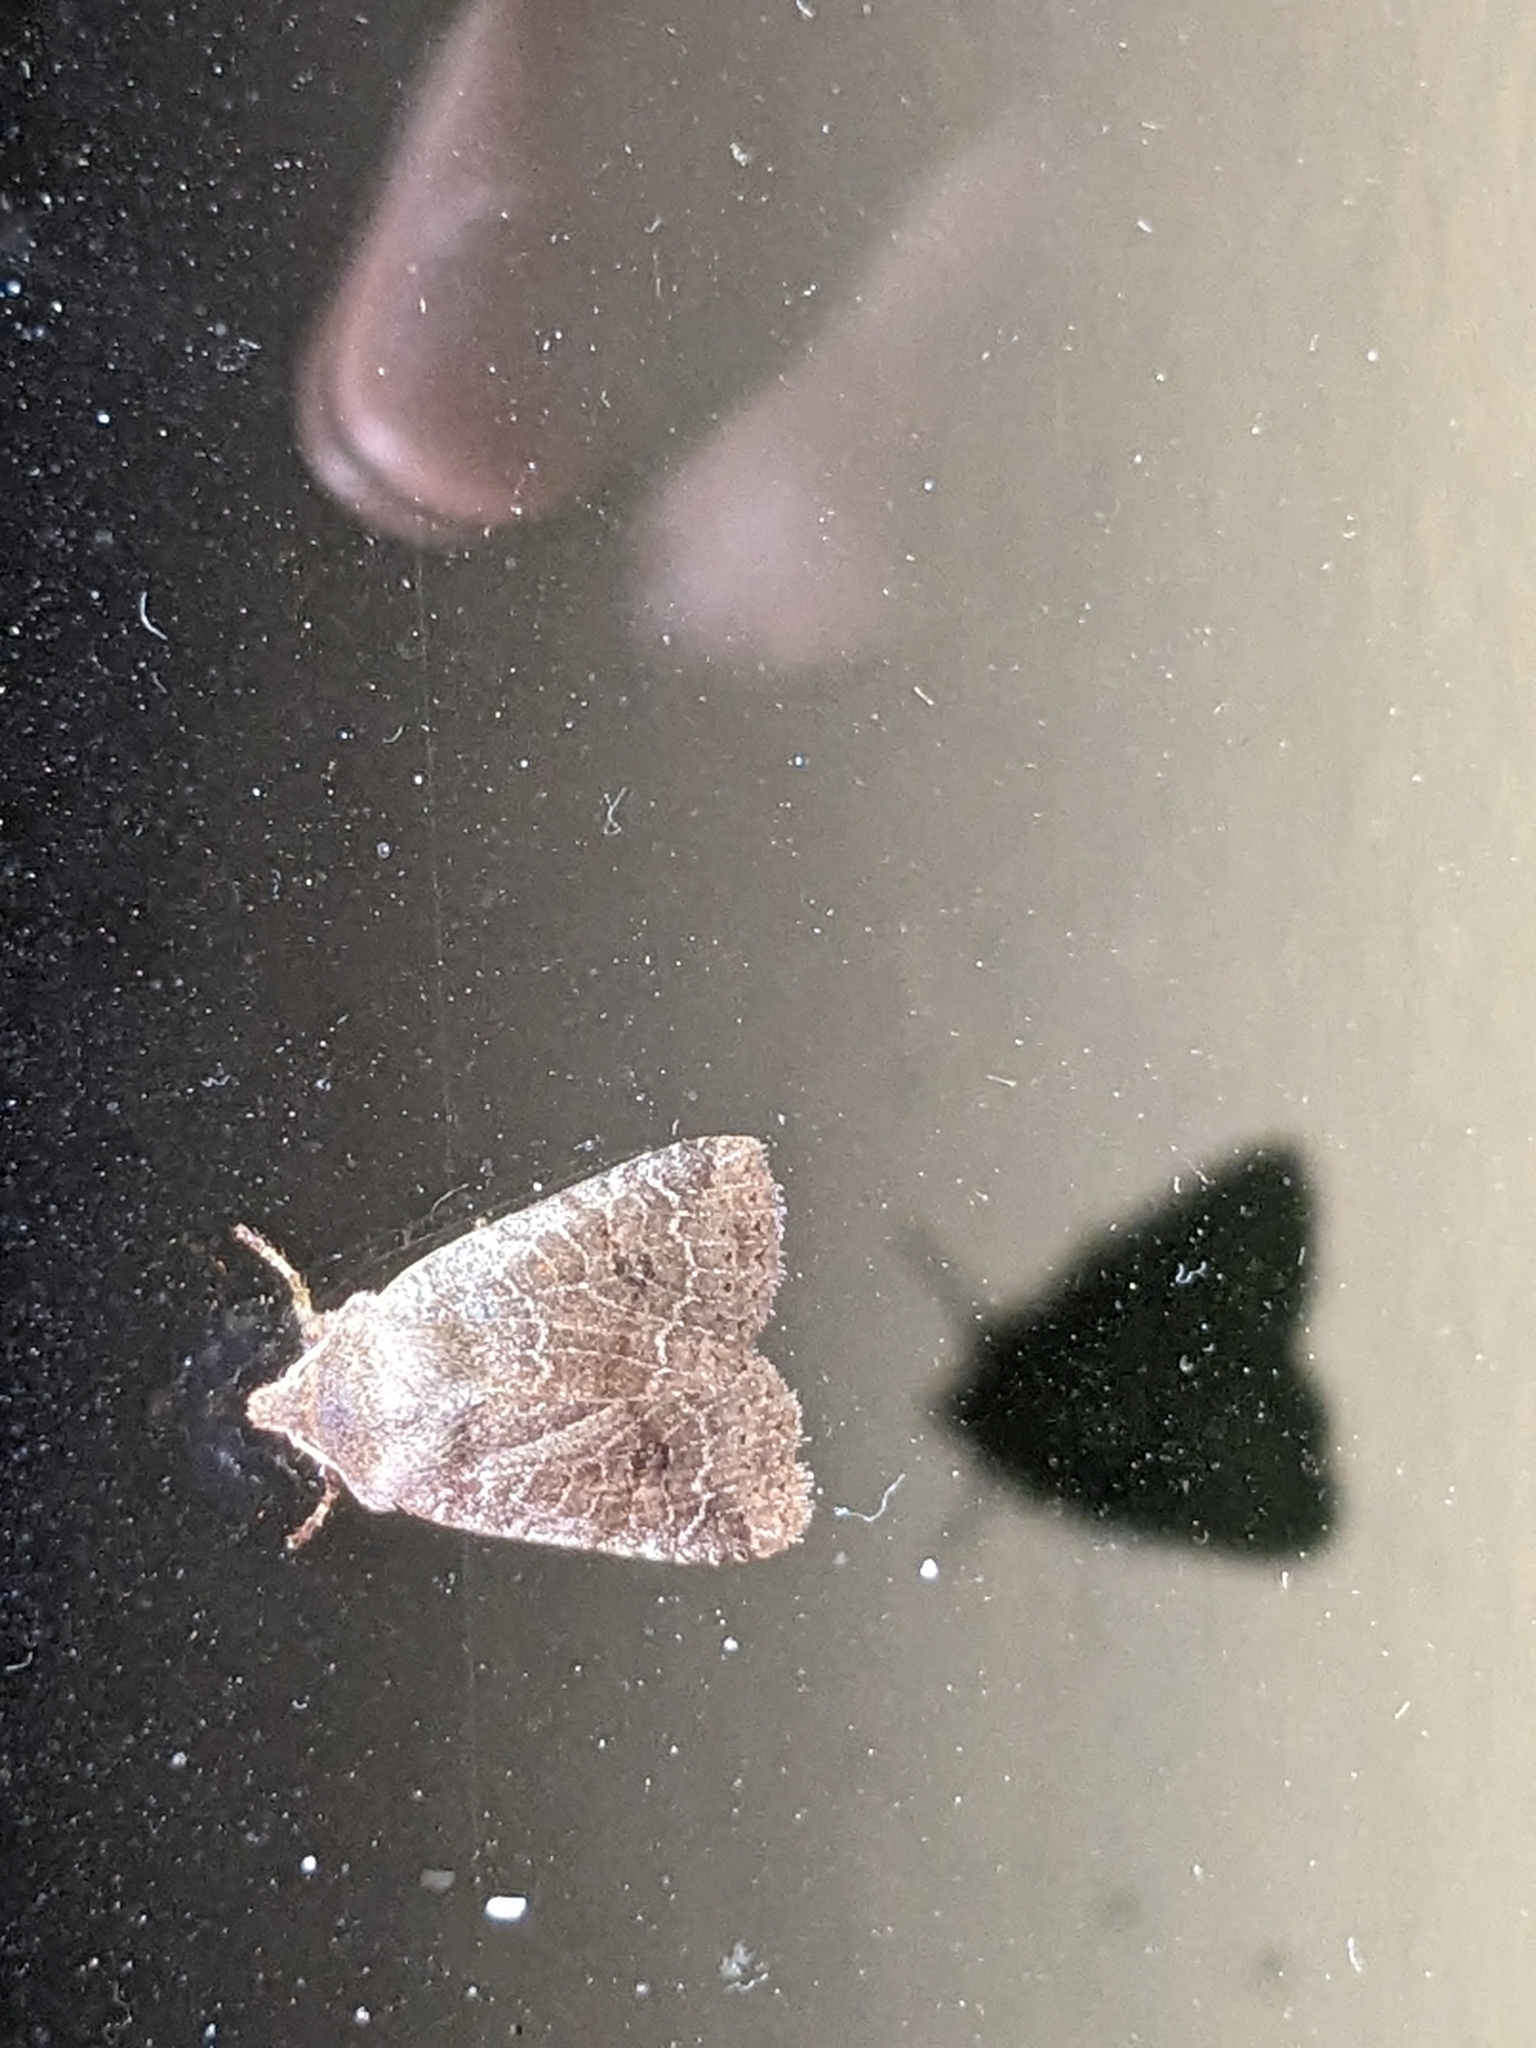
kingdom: Animalia
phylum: Arthropoda
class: Insecta
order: Lepidoptera
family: Noctuidae
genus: Conistra
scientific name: Conistra vaccinii
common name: Chestnut
